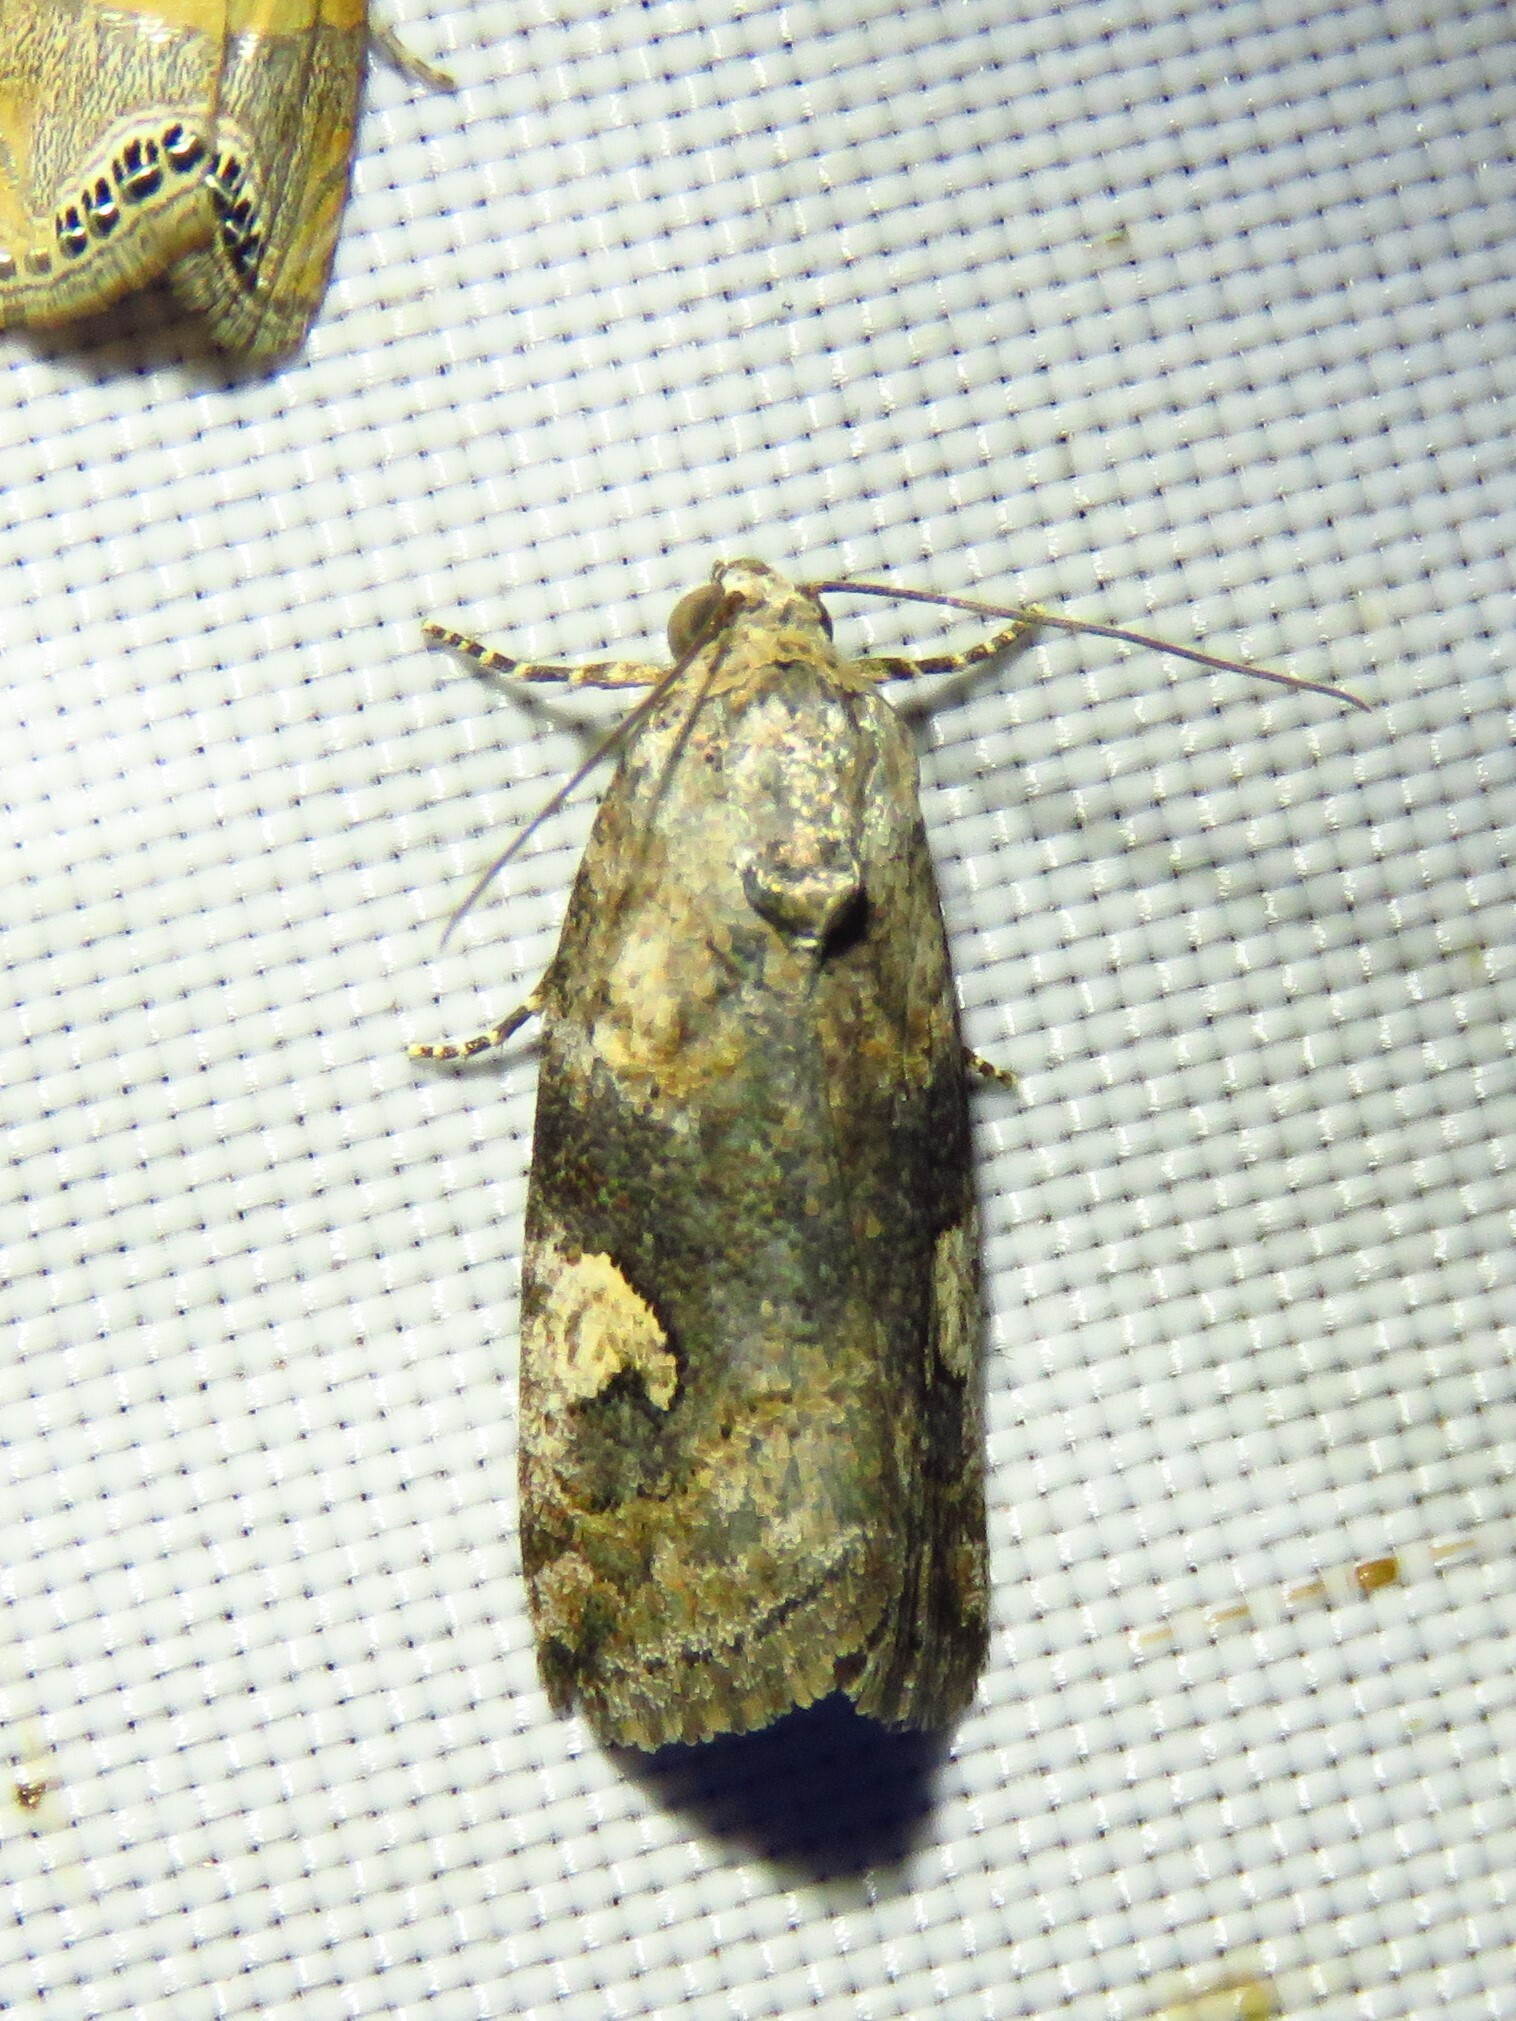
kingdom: Animalia
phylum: Arthropoda
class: Insecta
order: Lepidoptera
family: Noctuidae
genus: Metaponpneumata
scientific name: Metaponpneumata rogenhoferi
